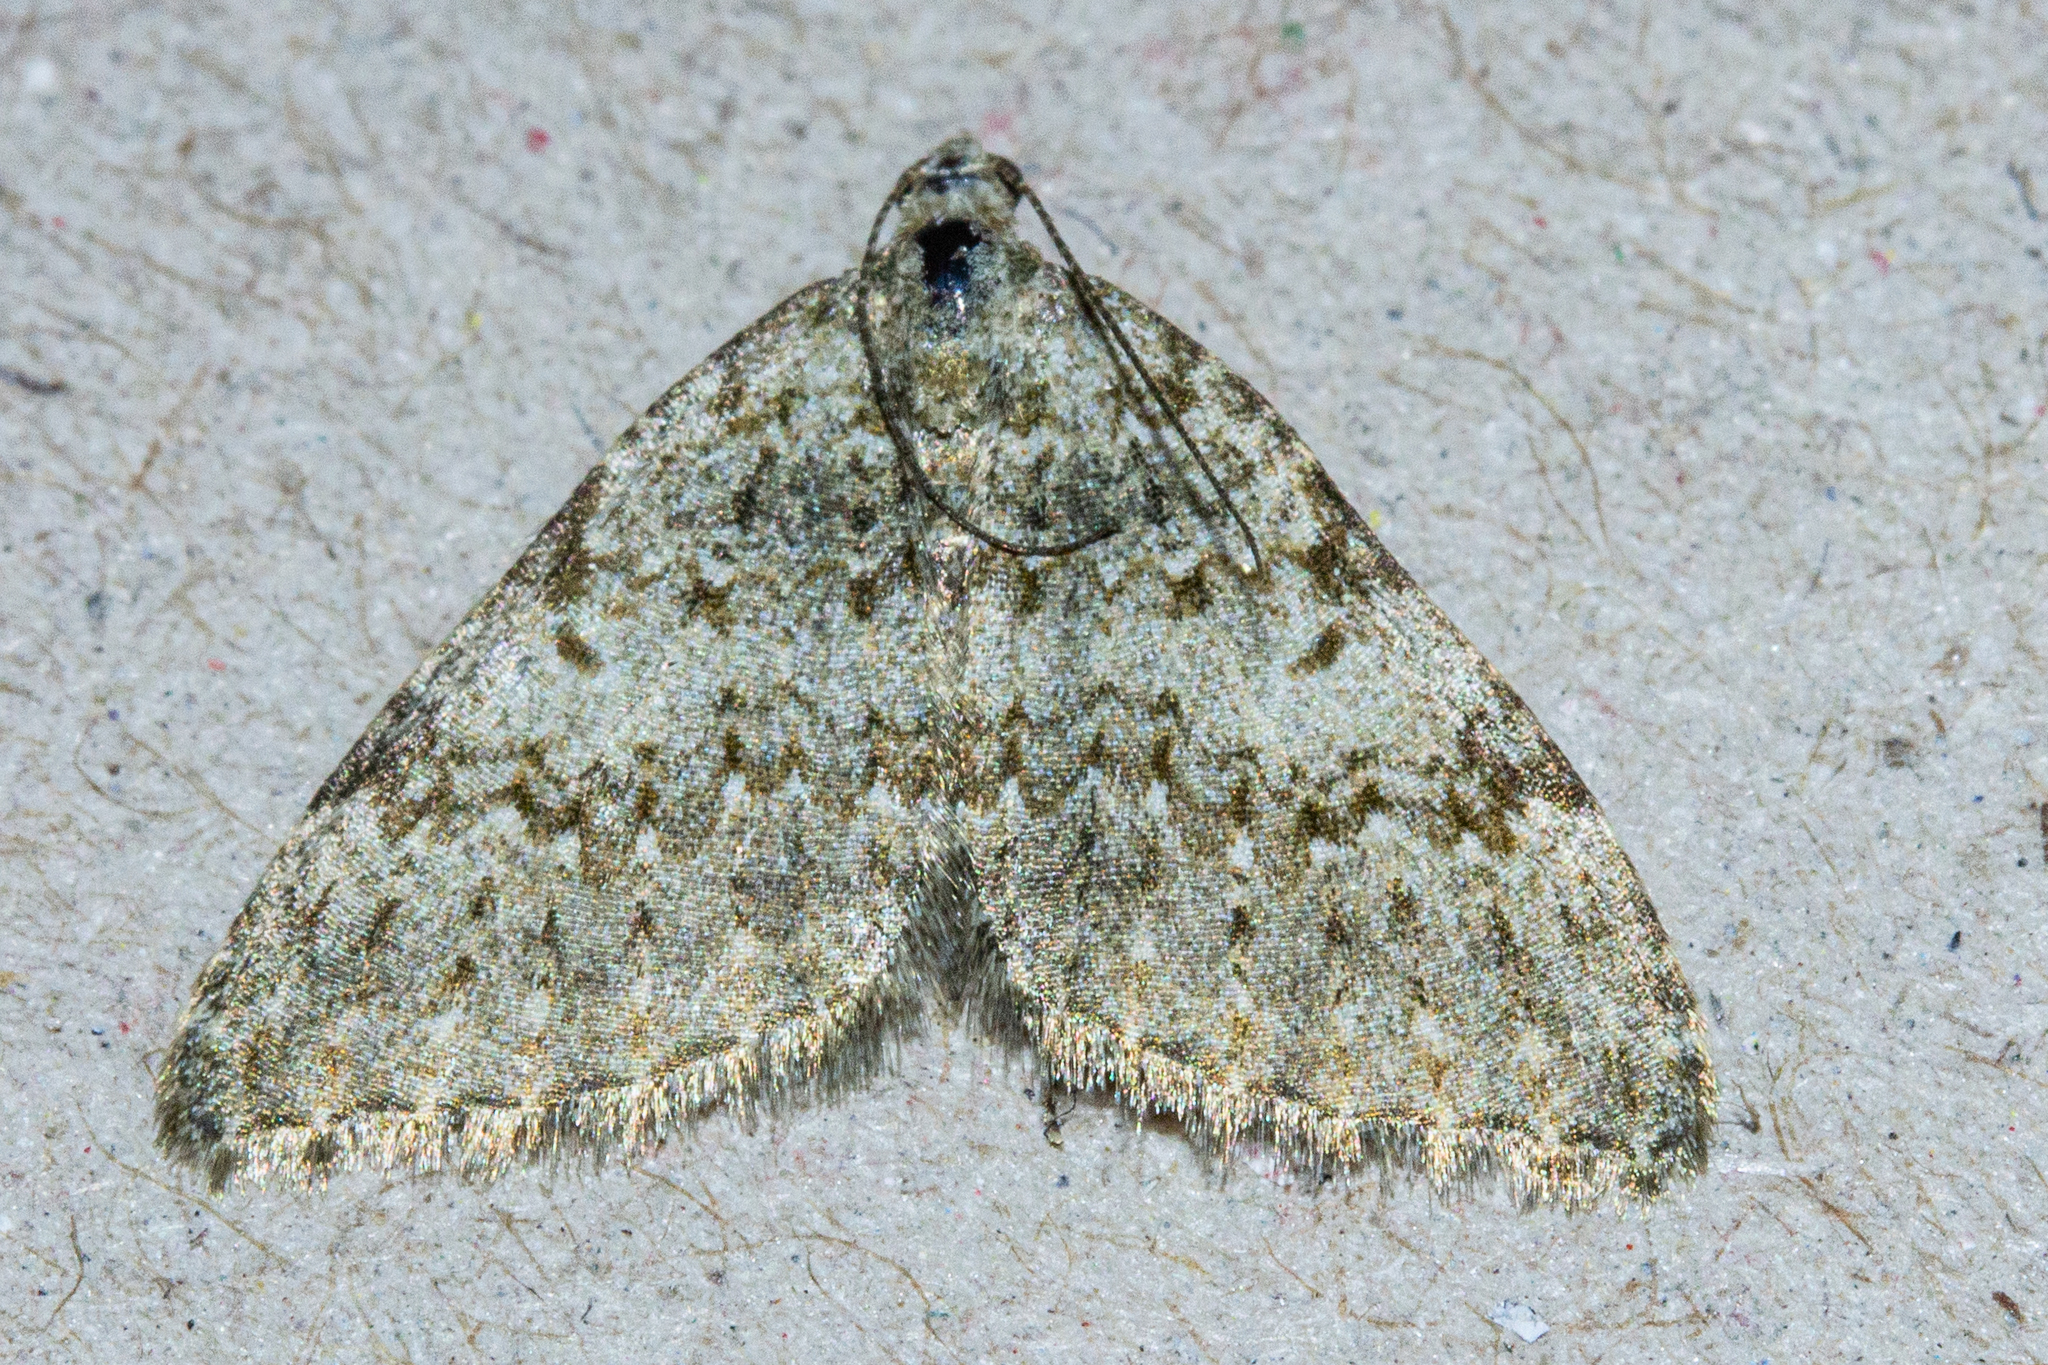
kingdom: Animalia
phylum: Arthropoda
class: Insecta
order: Lepidoptera
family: Geometridae
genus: Helastia
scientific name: Helastia plumbea
